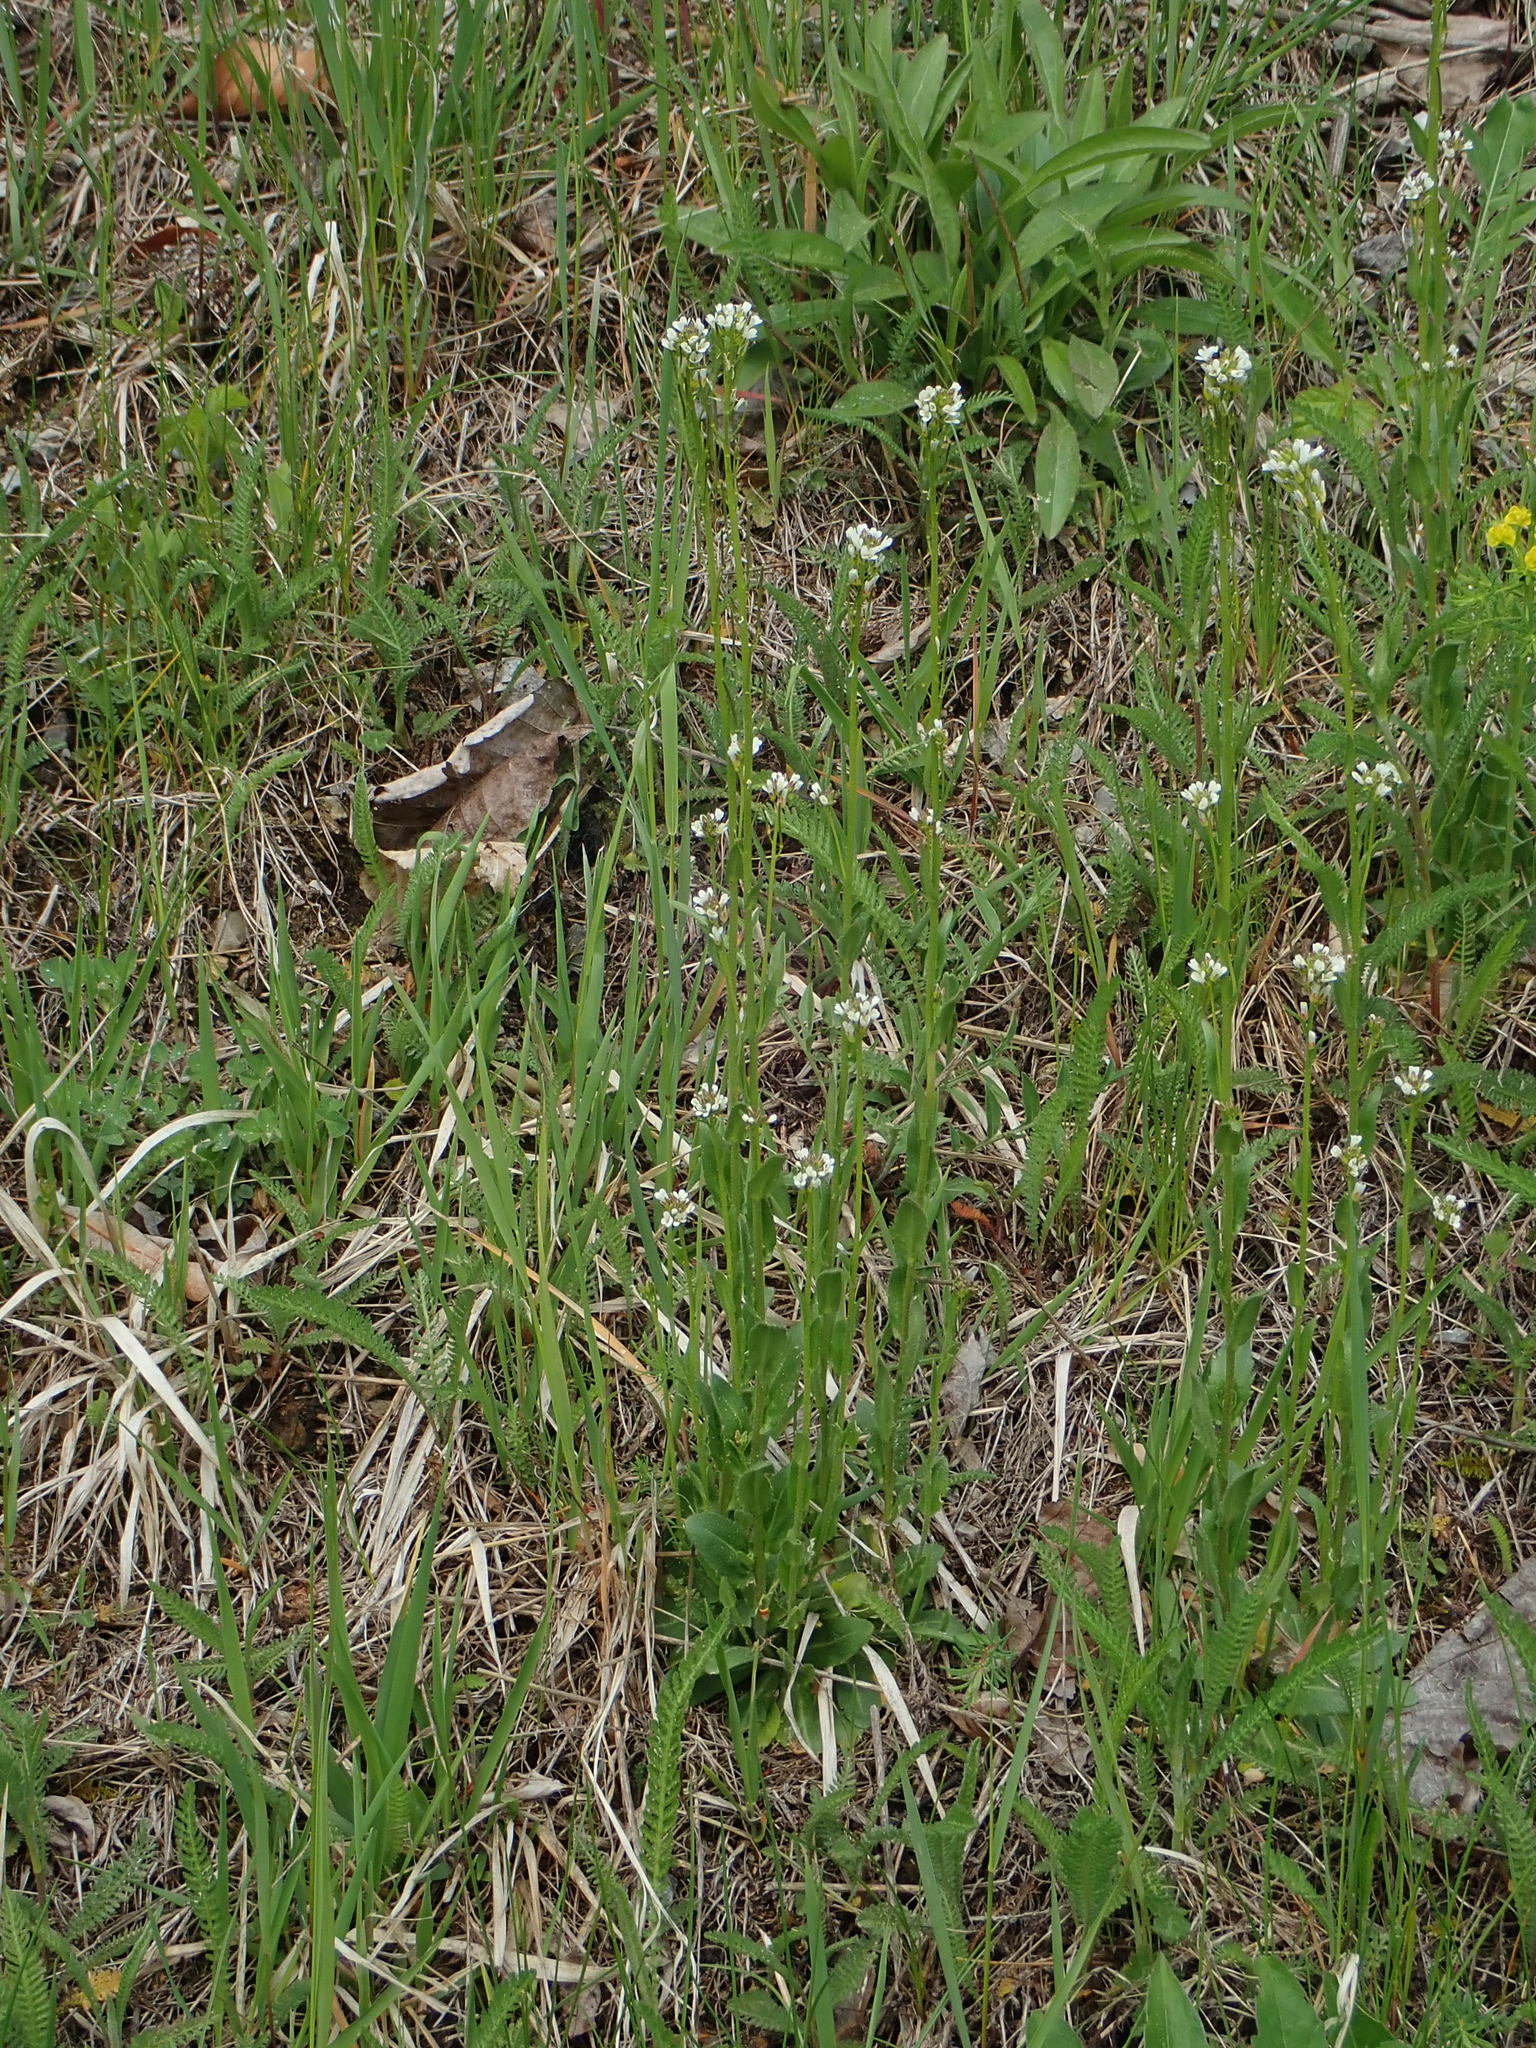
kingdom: Plantae
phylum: Tracheophyta
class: Magnoliopsida
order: Brassicales
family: Brassicaceae
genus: Arabis
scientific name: Arabis hirsuta
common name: Hairy rock-cress
